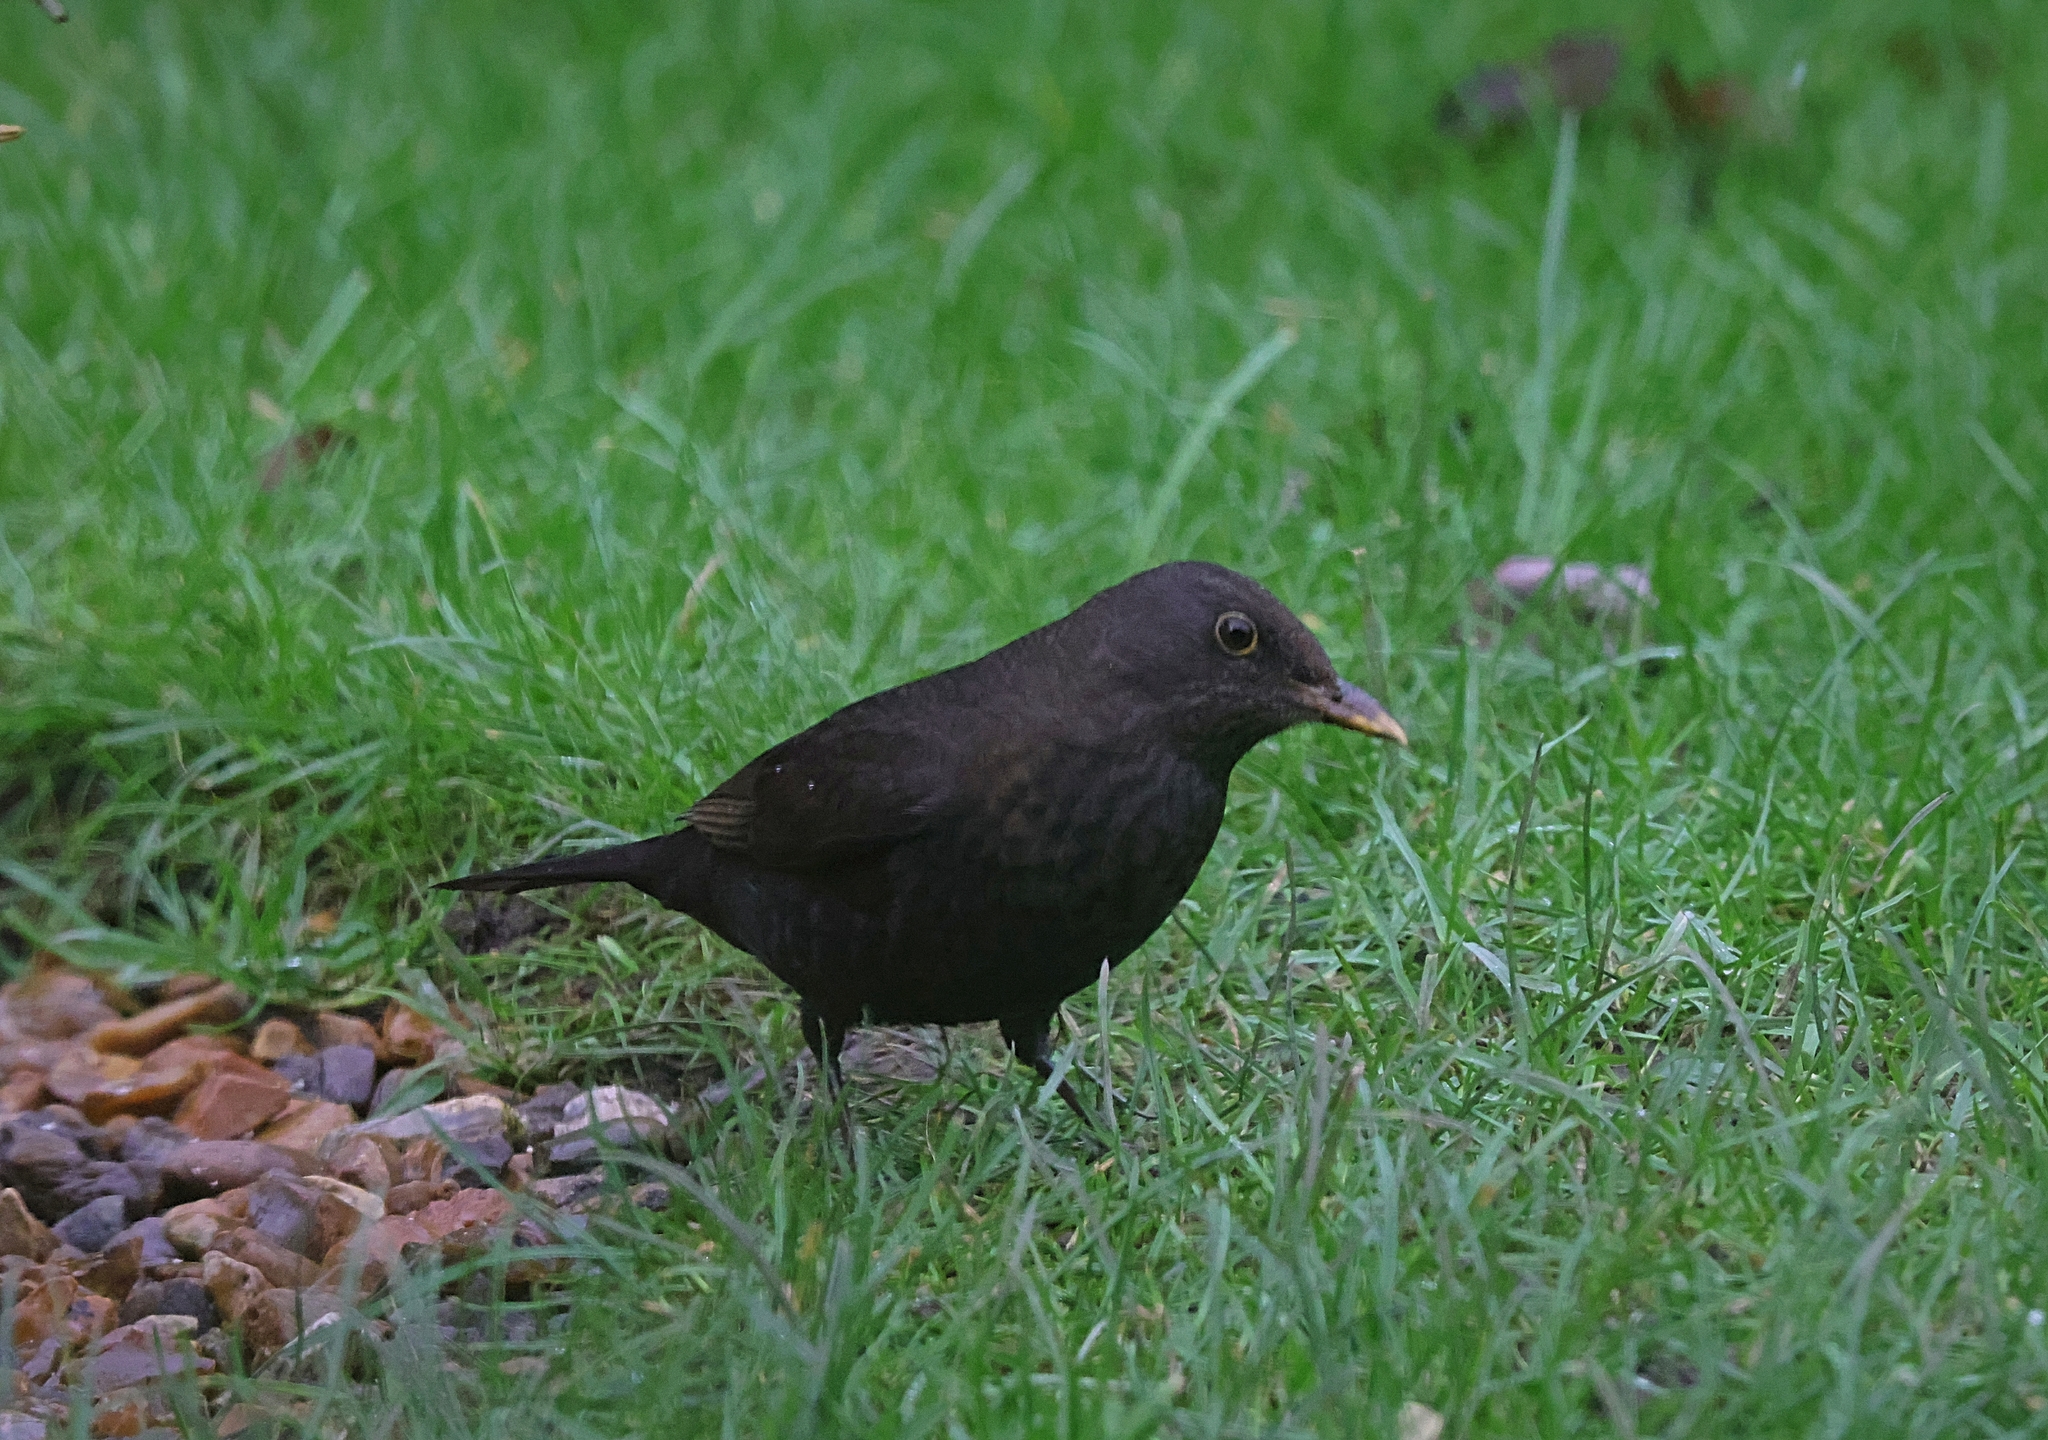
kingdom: Animalia
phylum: Chordata
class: Aves
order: Passeriformes
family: Turdidae
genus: Turdus
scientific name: Turdus merula
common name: Common blackbird
